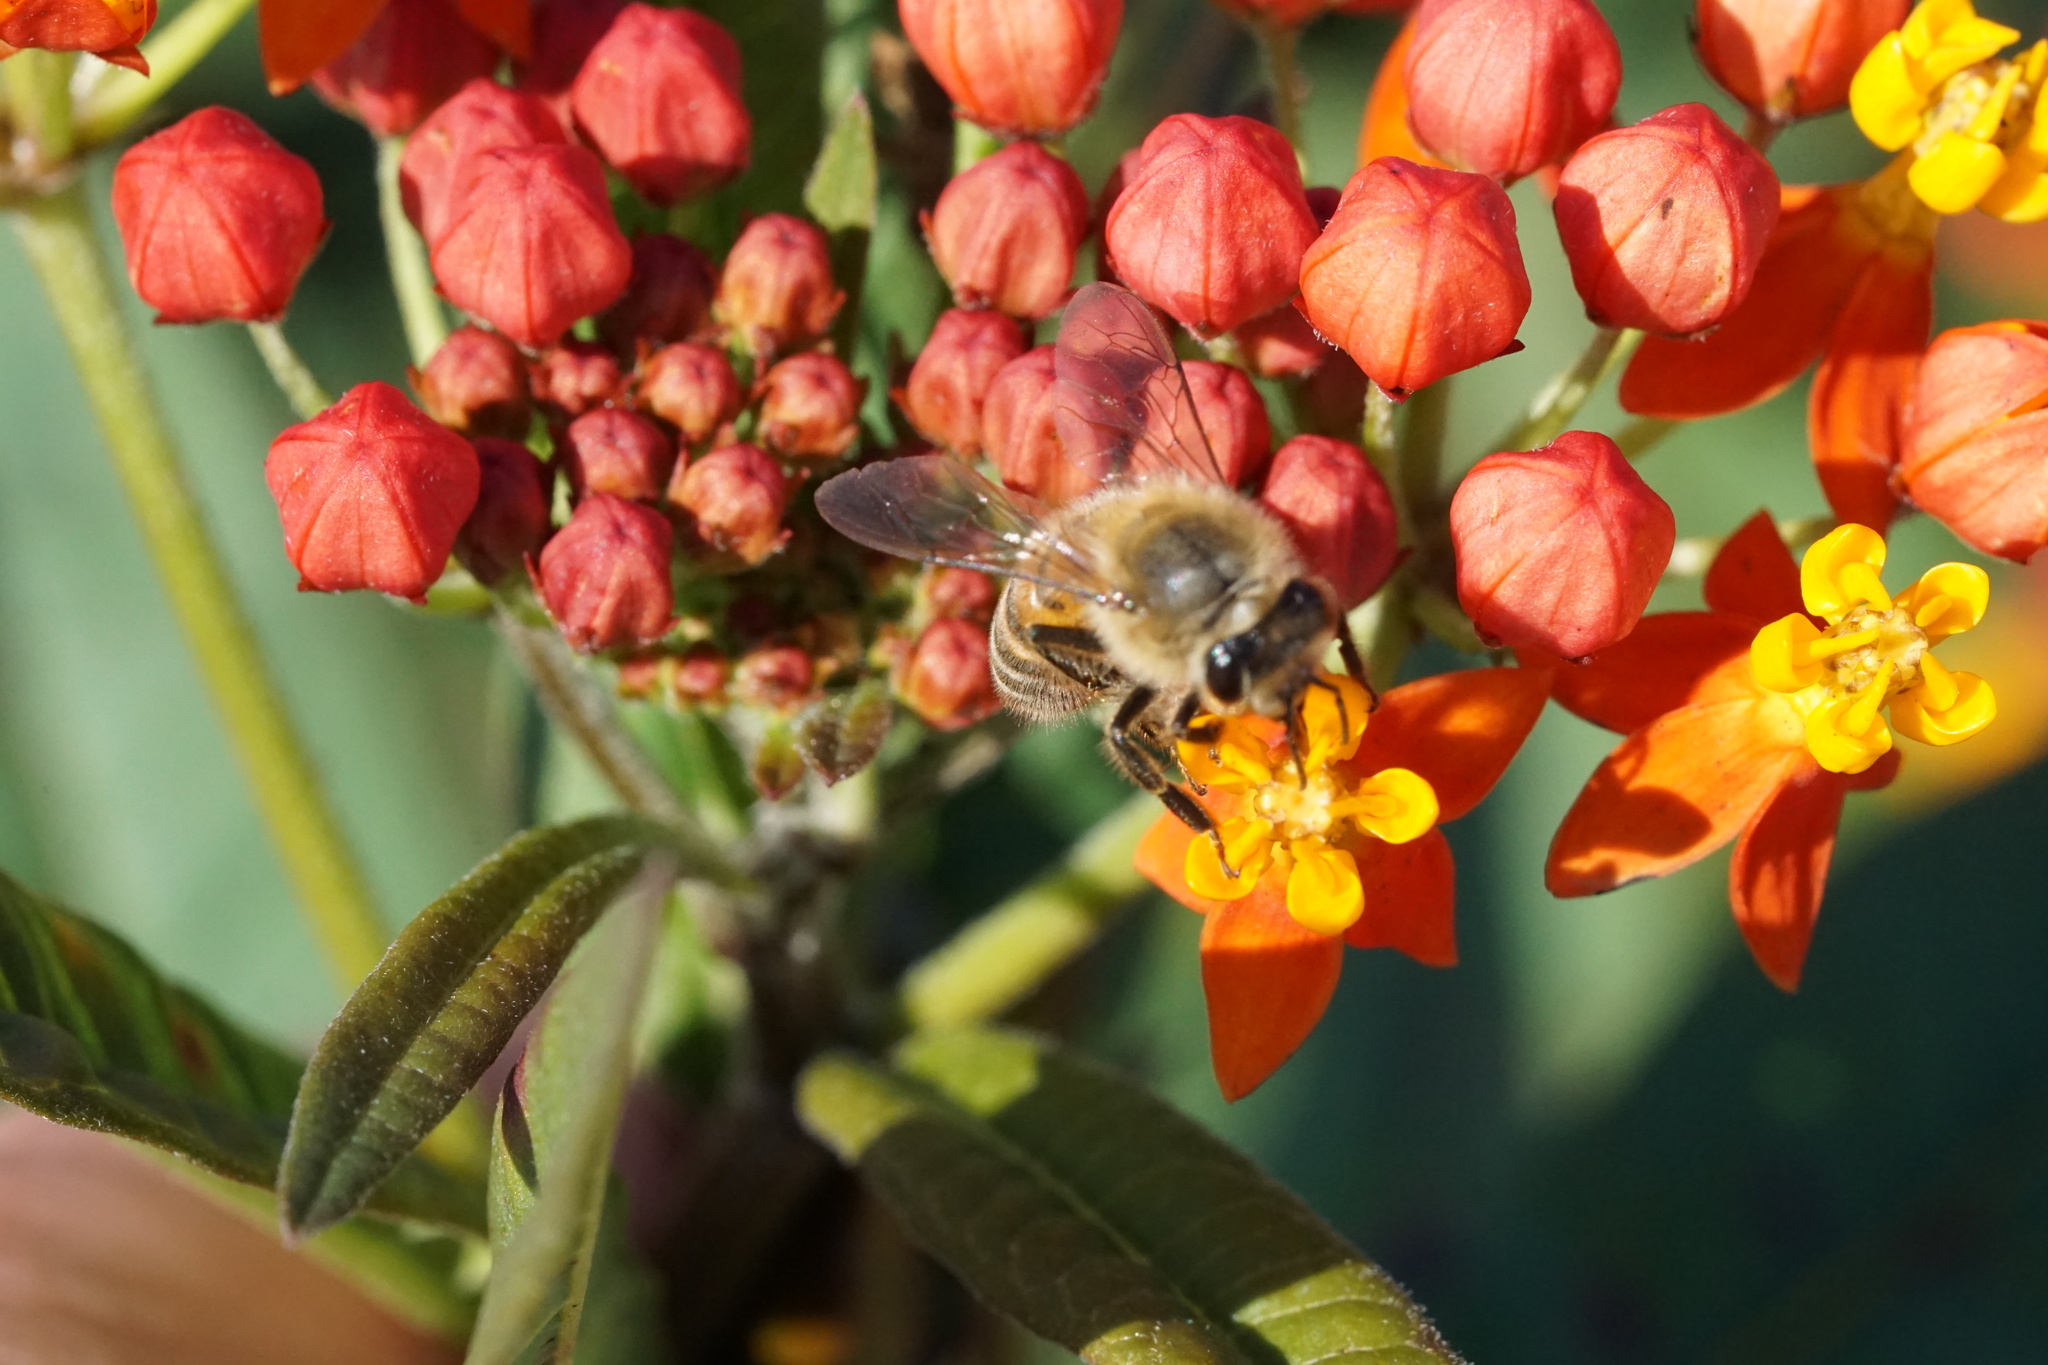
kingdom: Animalia
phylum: Arthropoda
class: Insecta
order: Hymenoptera
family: Apidae
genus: Apis
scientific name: Apis mellifera
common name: Honey bee
